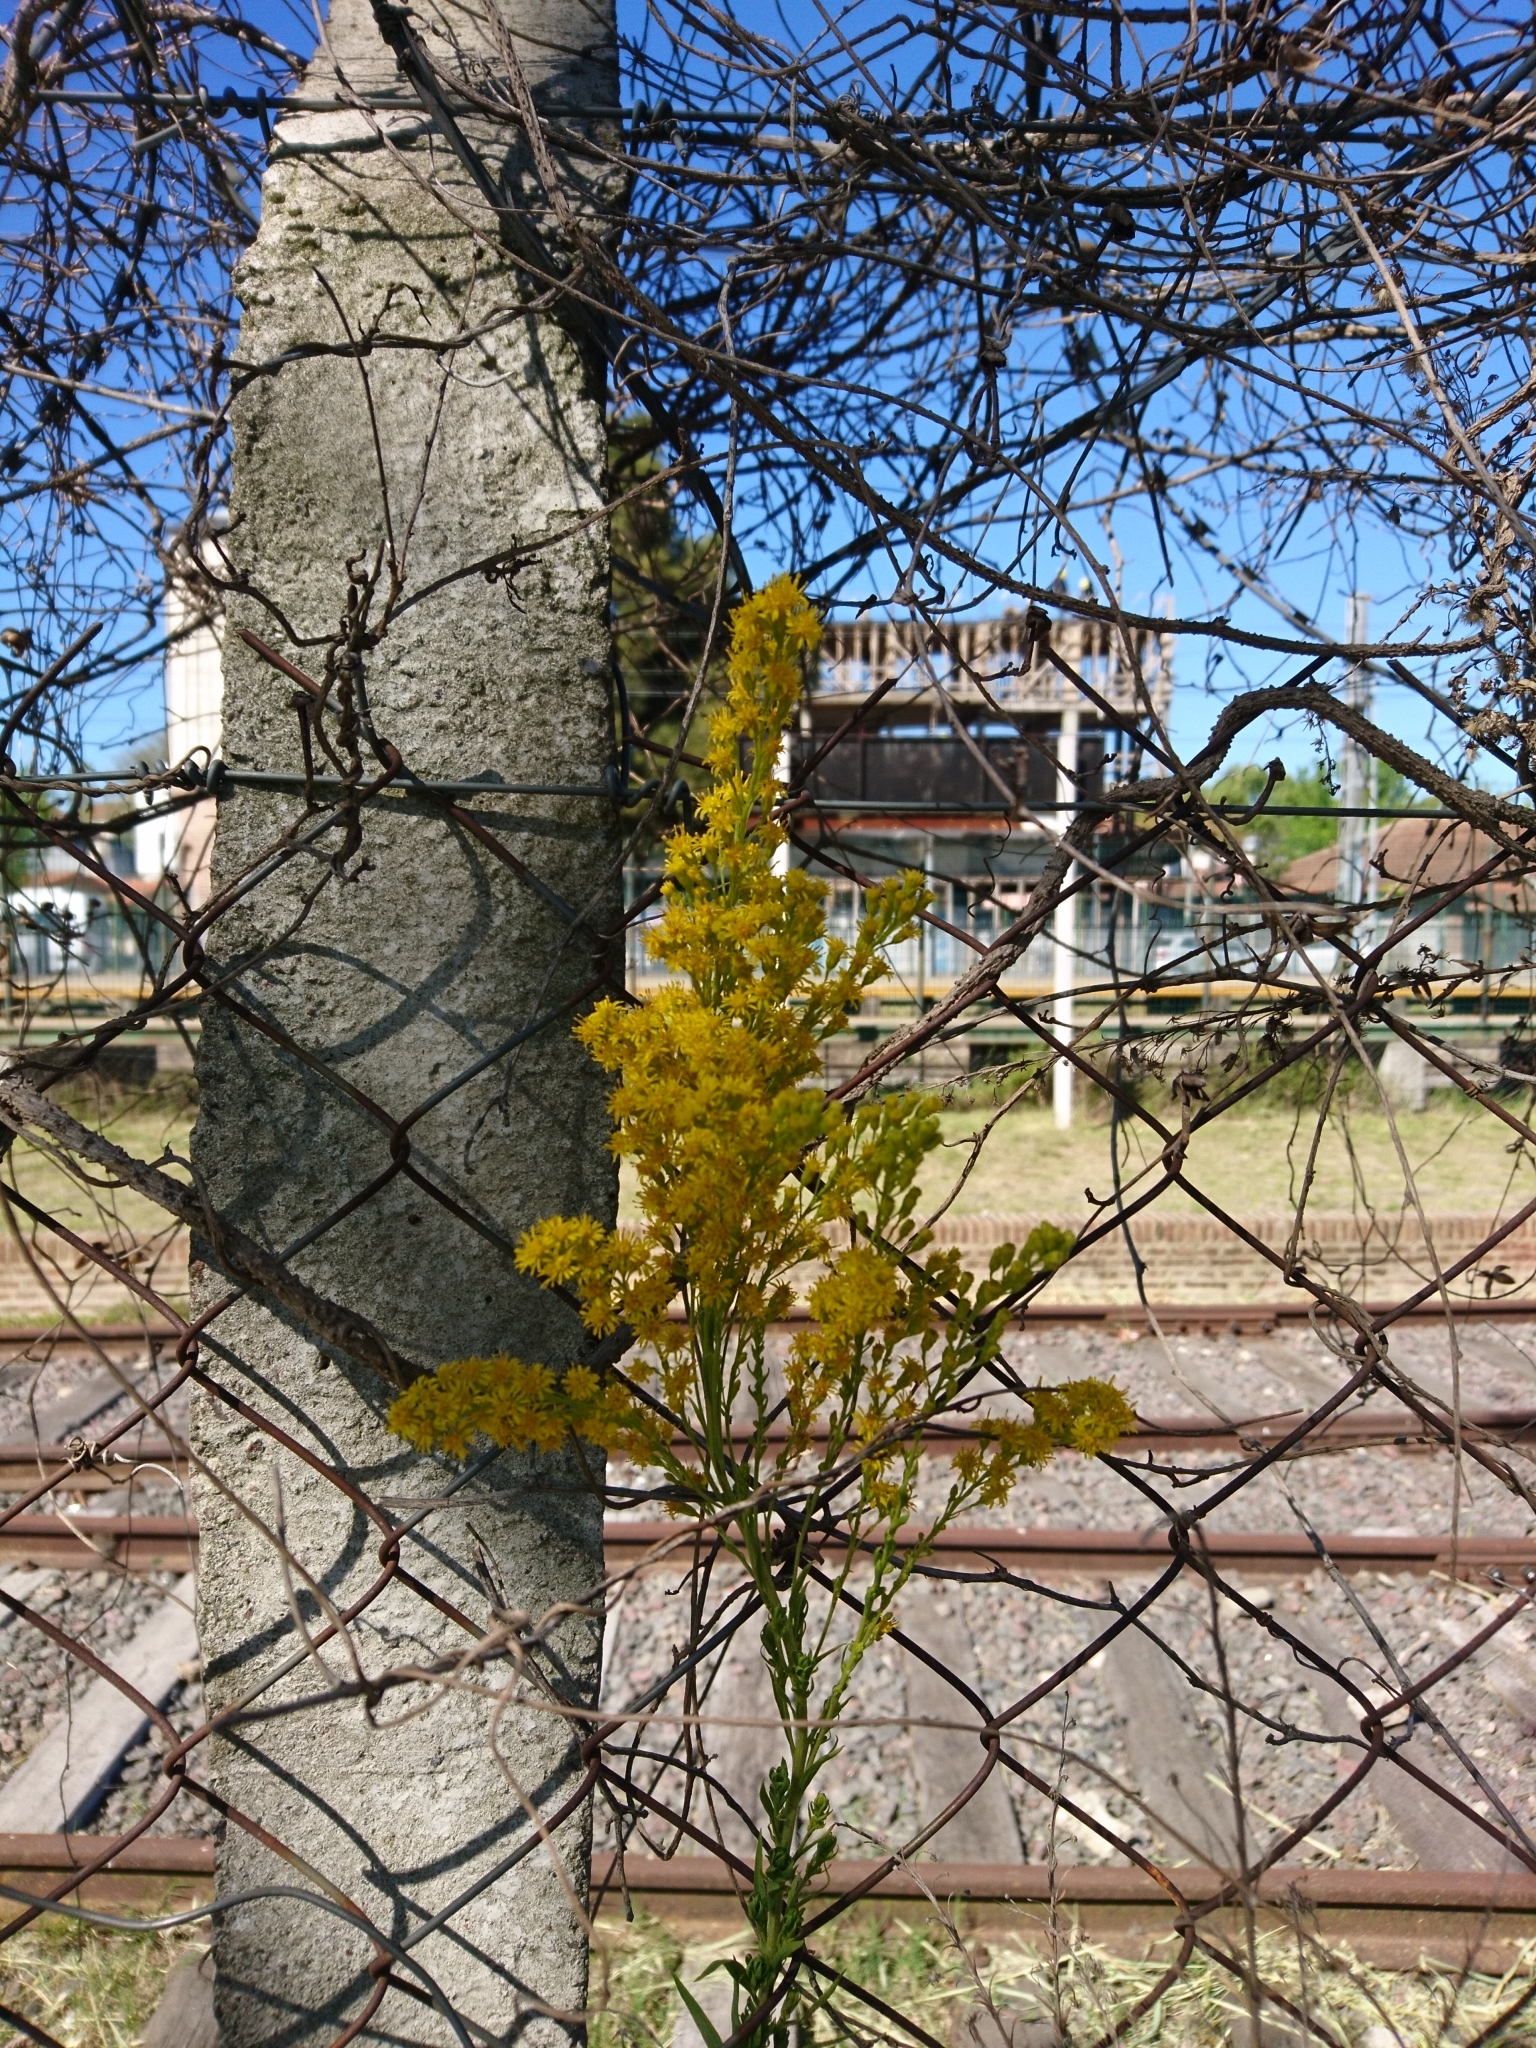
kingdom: Plantae
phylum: Tracheophyta
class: Magnoliopsida
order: Asterales
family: Asteraceae
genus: Solidago
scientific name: Solidago chilensis
